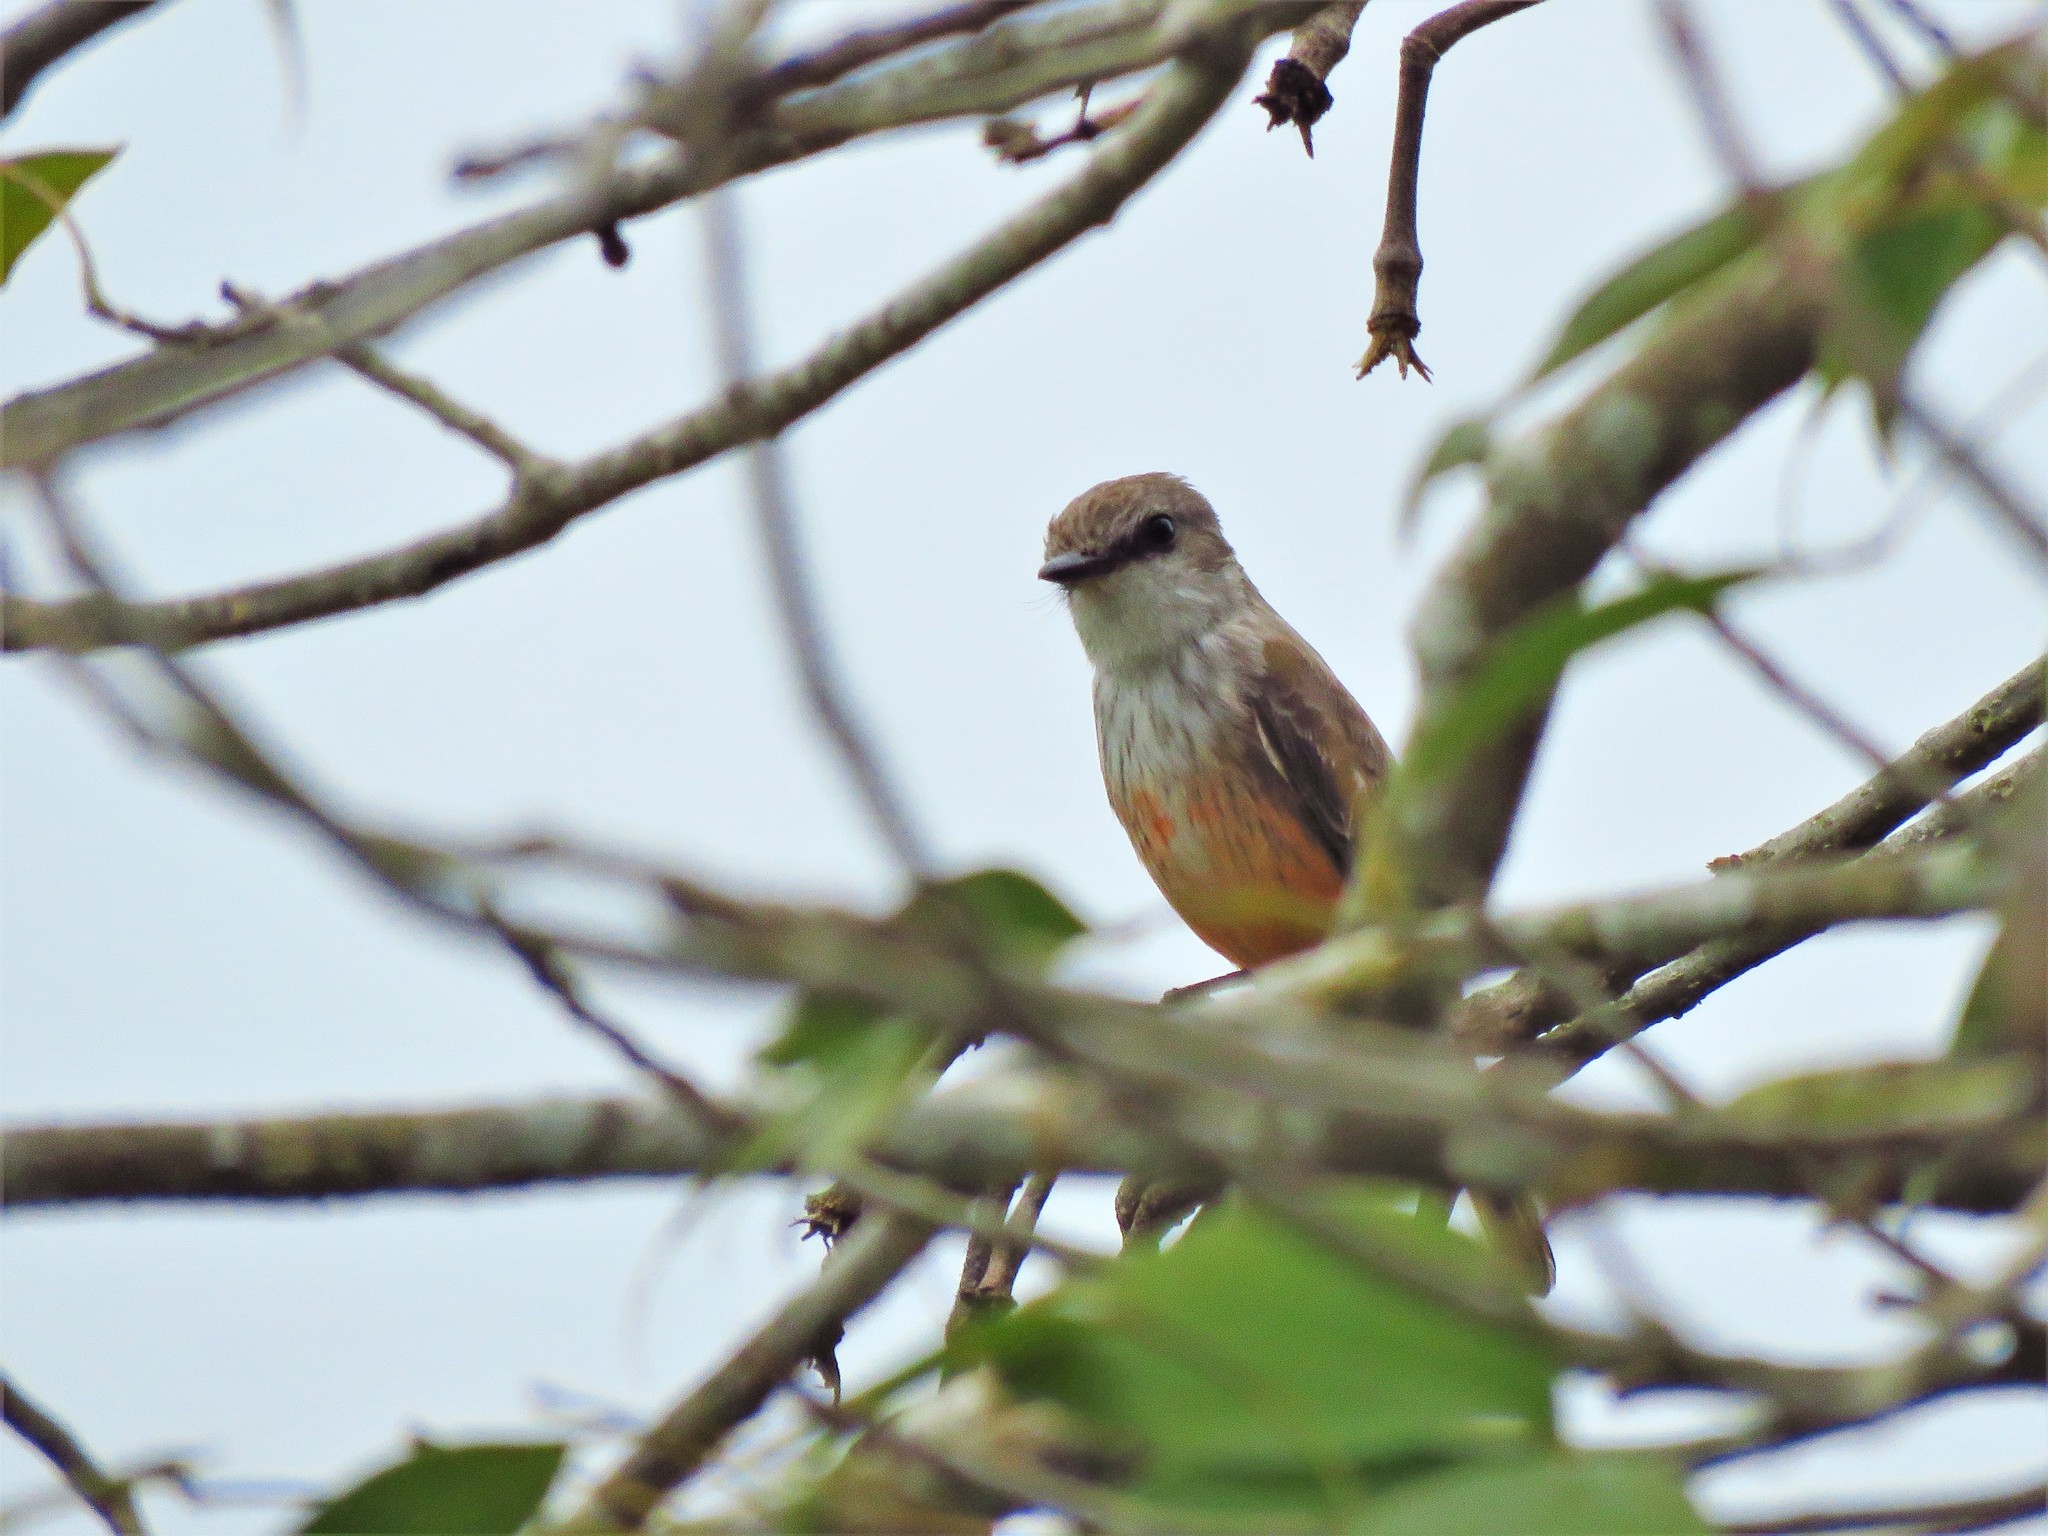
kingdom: Animalia
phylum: Chordata
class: Aves
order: Passeriformes
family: Tyrannidae
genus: Pyrocephalus
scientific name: Pyrocephalus rubinus
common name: Vermilion flycatcher
